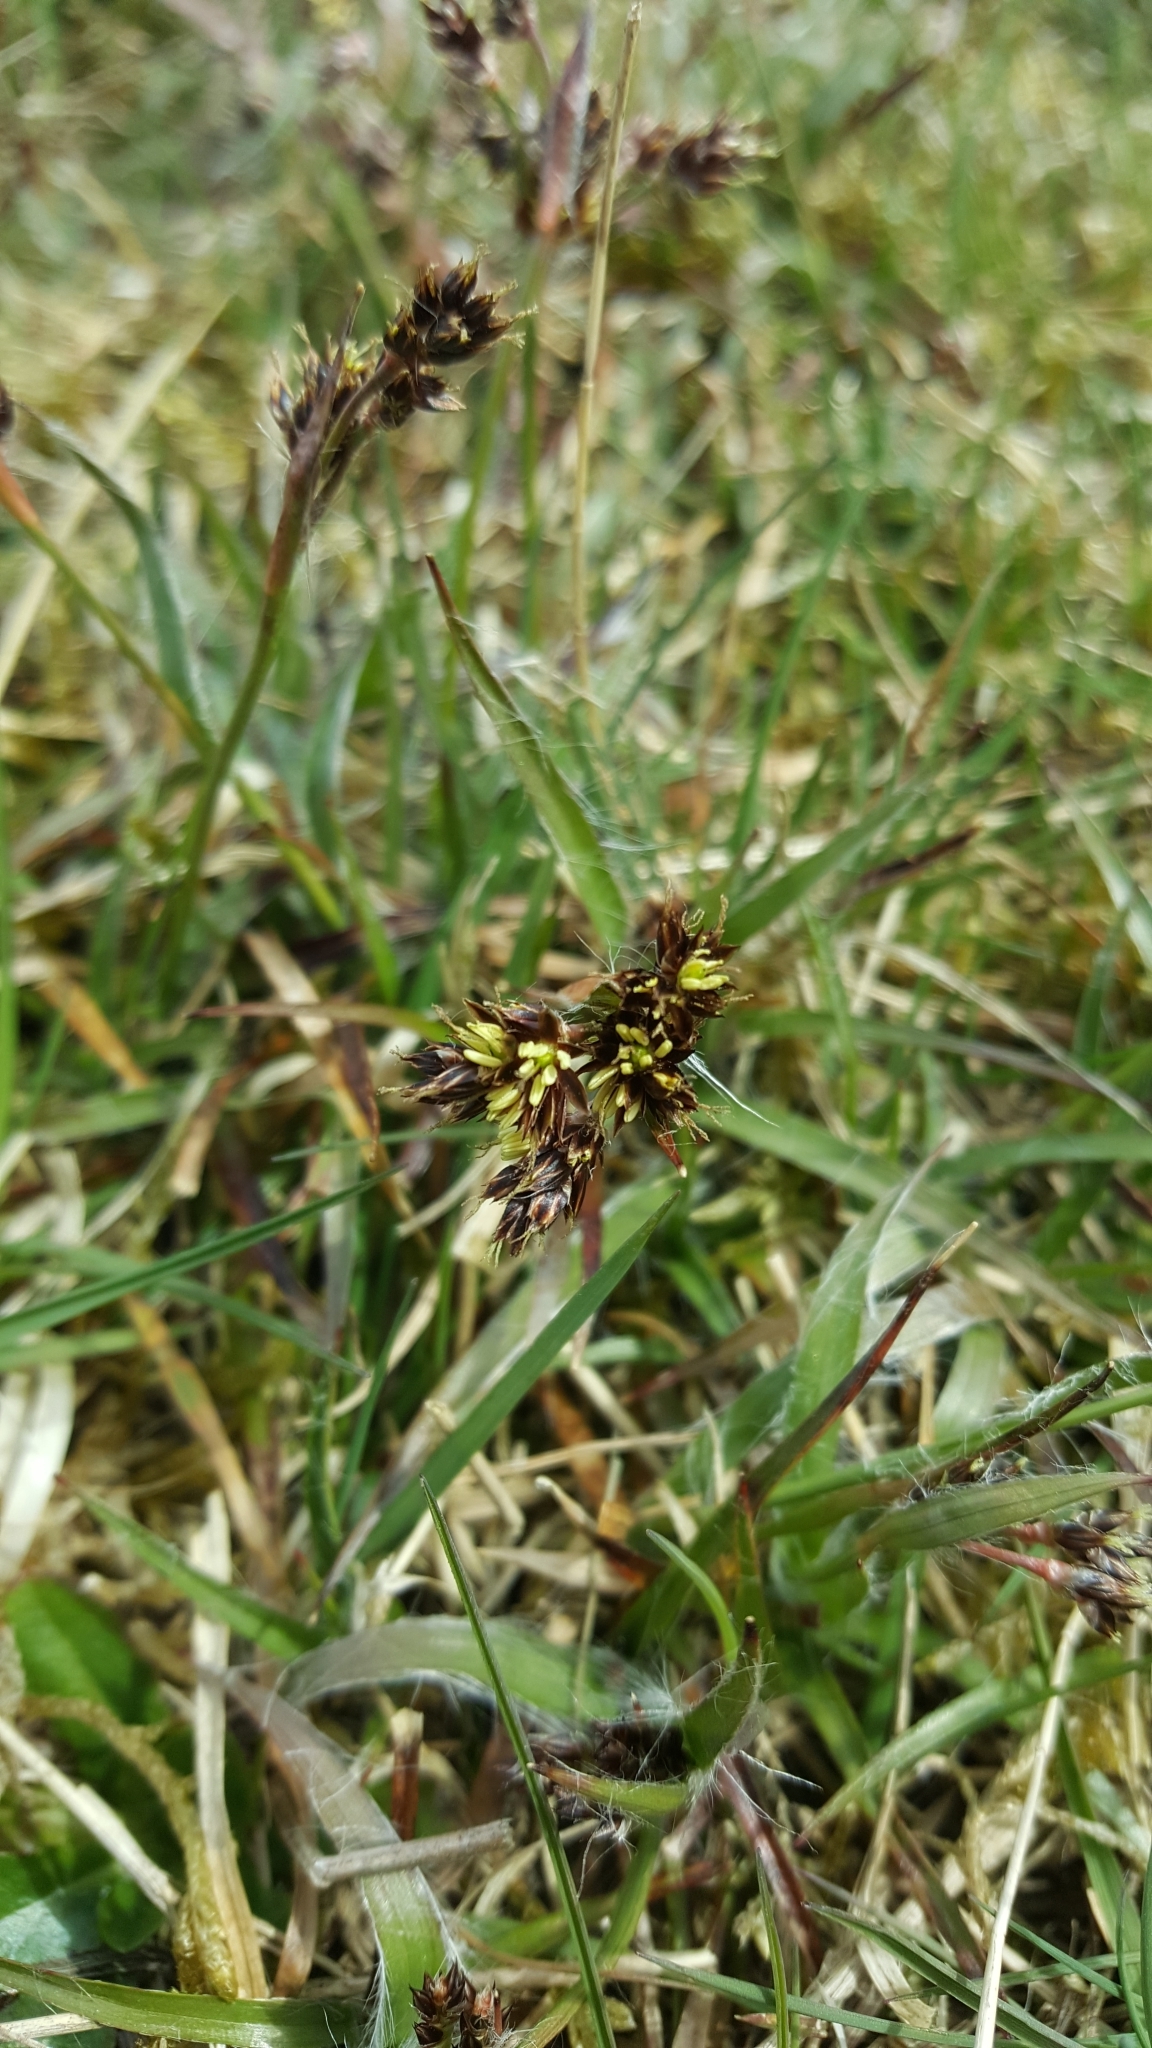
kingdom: Plantae
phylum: Tracheophyta
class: Liliopsida
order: Poales
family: Juncaceae
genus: Luzula
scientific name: Luzula campestris
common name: Field wood-rush
